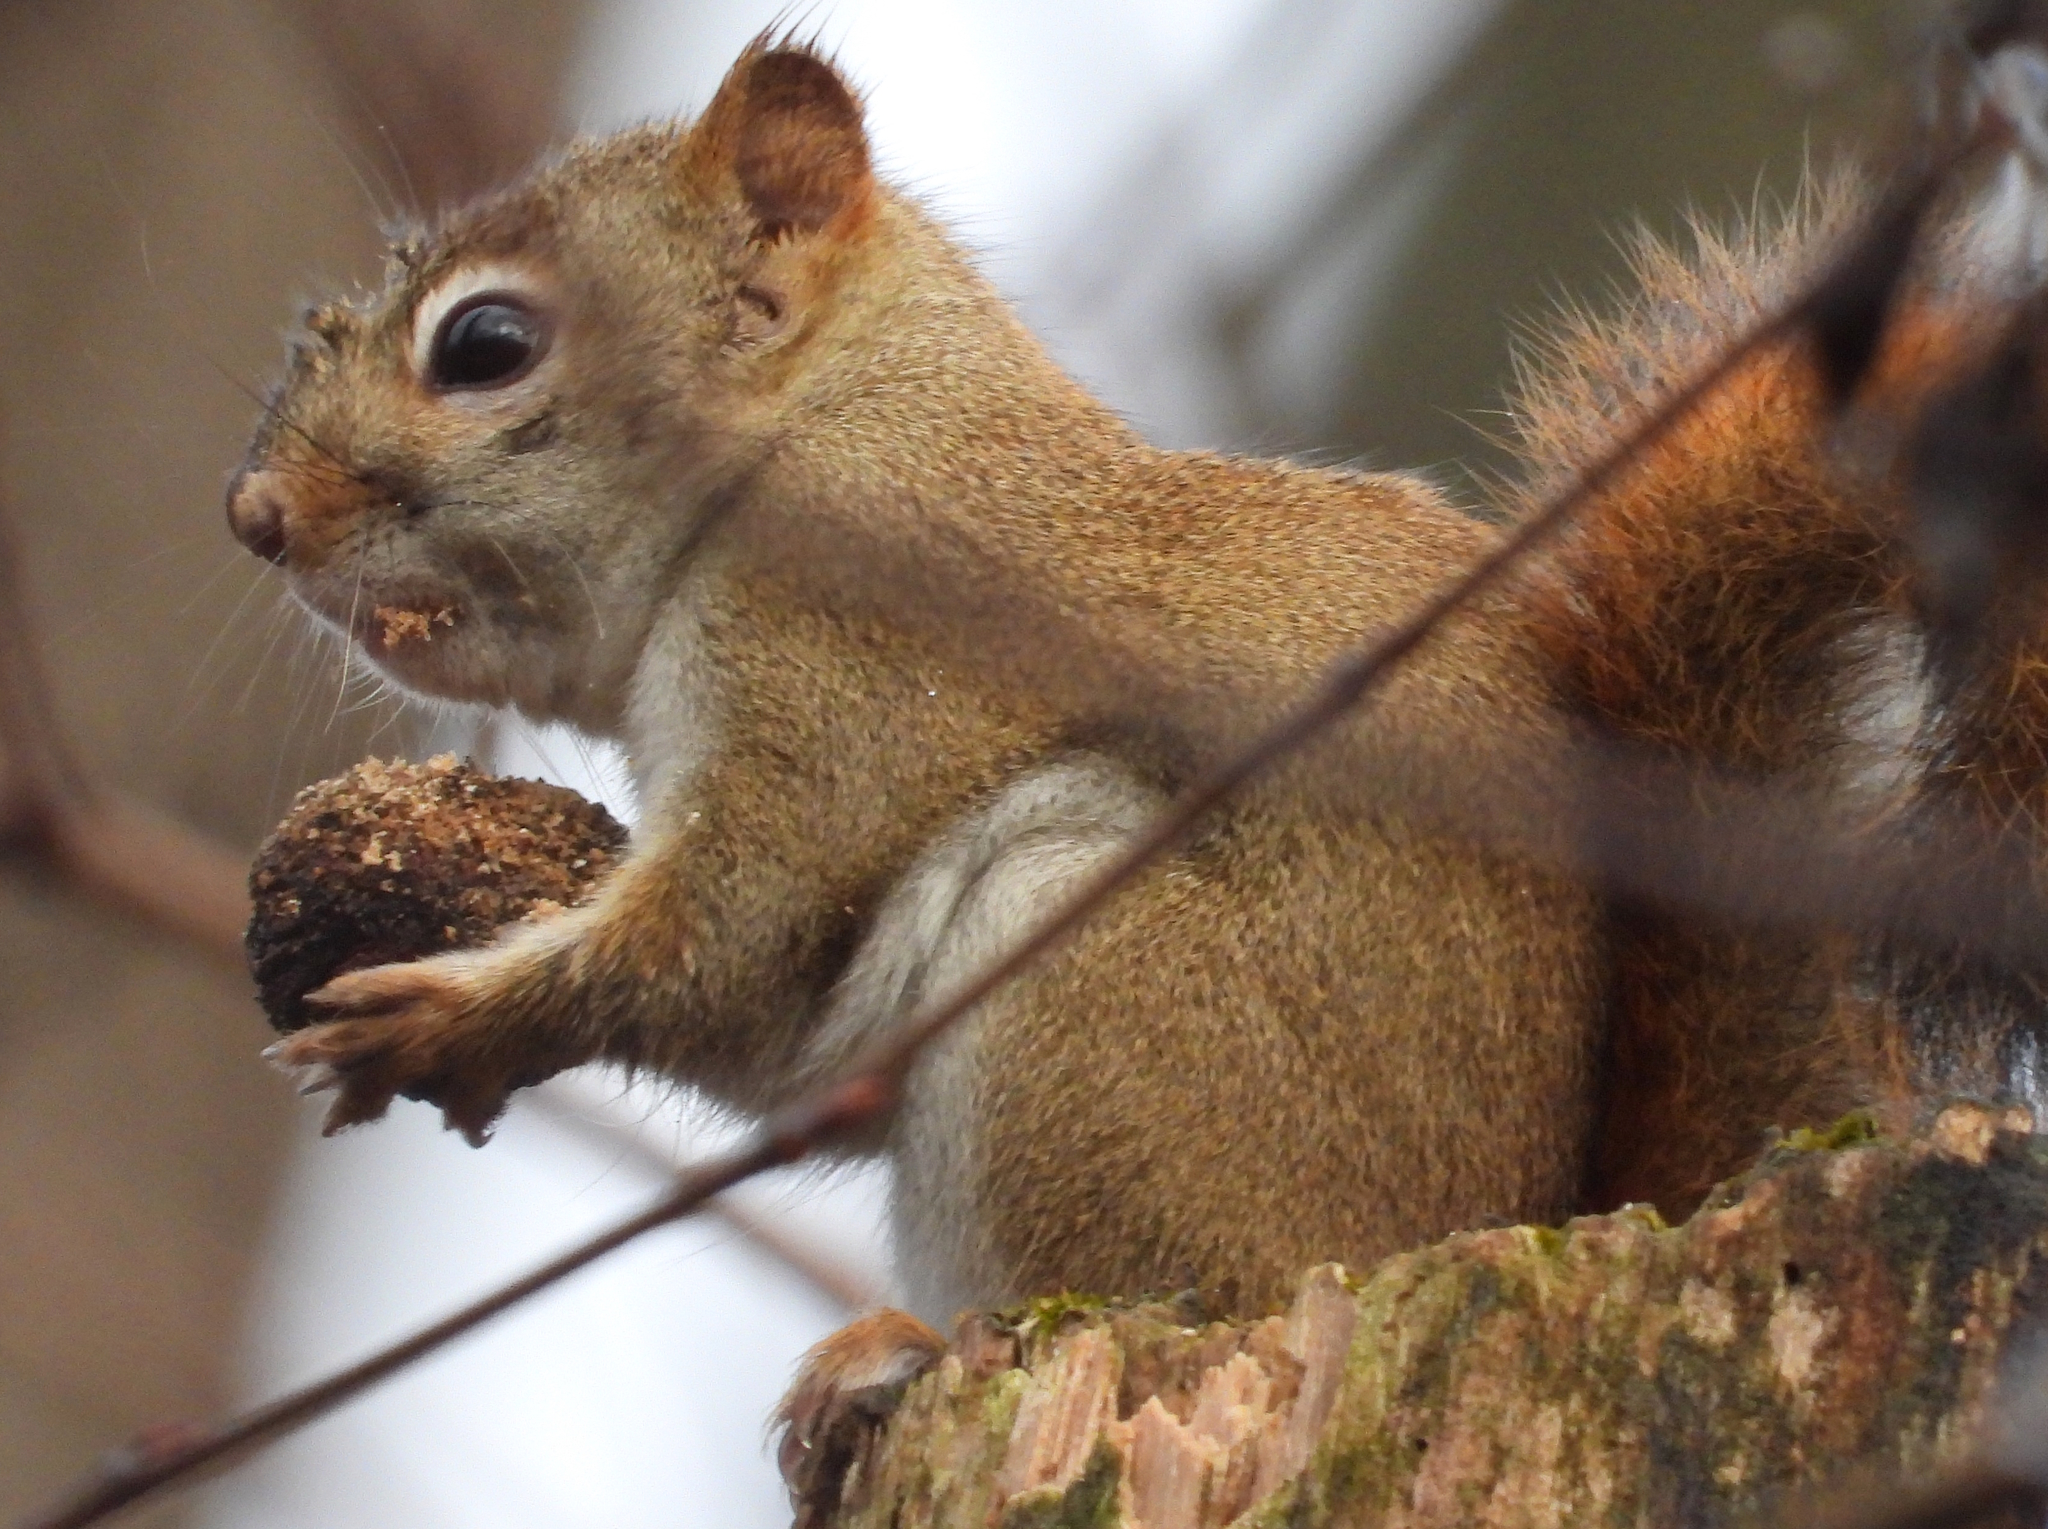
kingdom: Animalia
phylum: Chordata
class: Mammalia
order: Rodentia
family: Sciuridae
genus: Tamiasciurus
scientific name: Tamiasciurus hudsonicus
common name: Red squirrel
